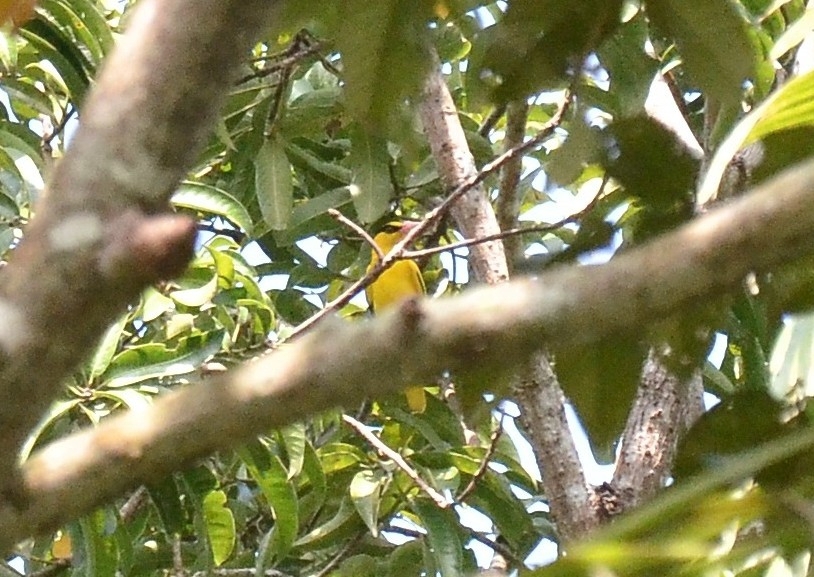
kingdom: Animalia
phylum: Chordata
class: Aves
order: Passeriformes
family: Oriolidae
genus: Oriolus
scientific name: Oriolus chinensis
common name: Black-naped oriole
